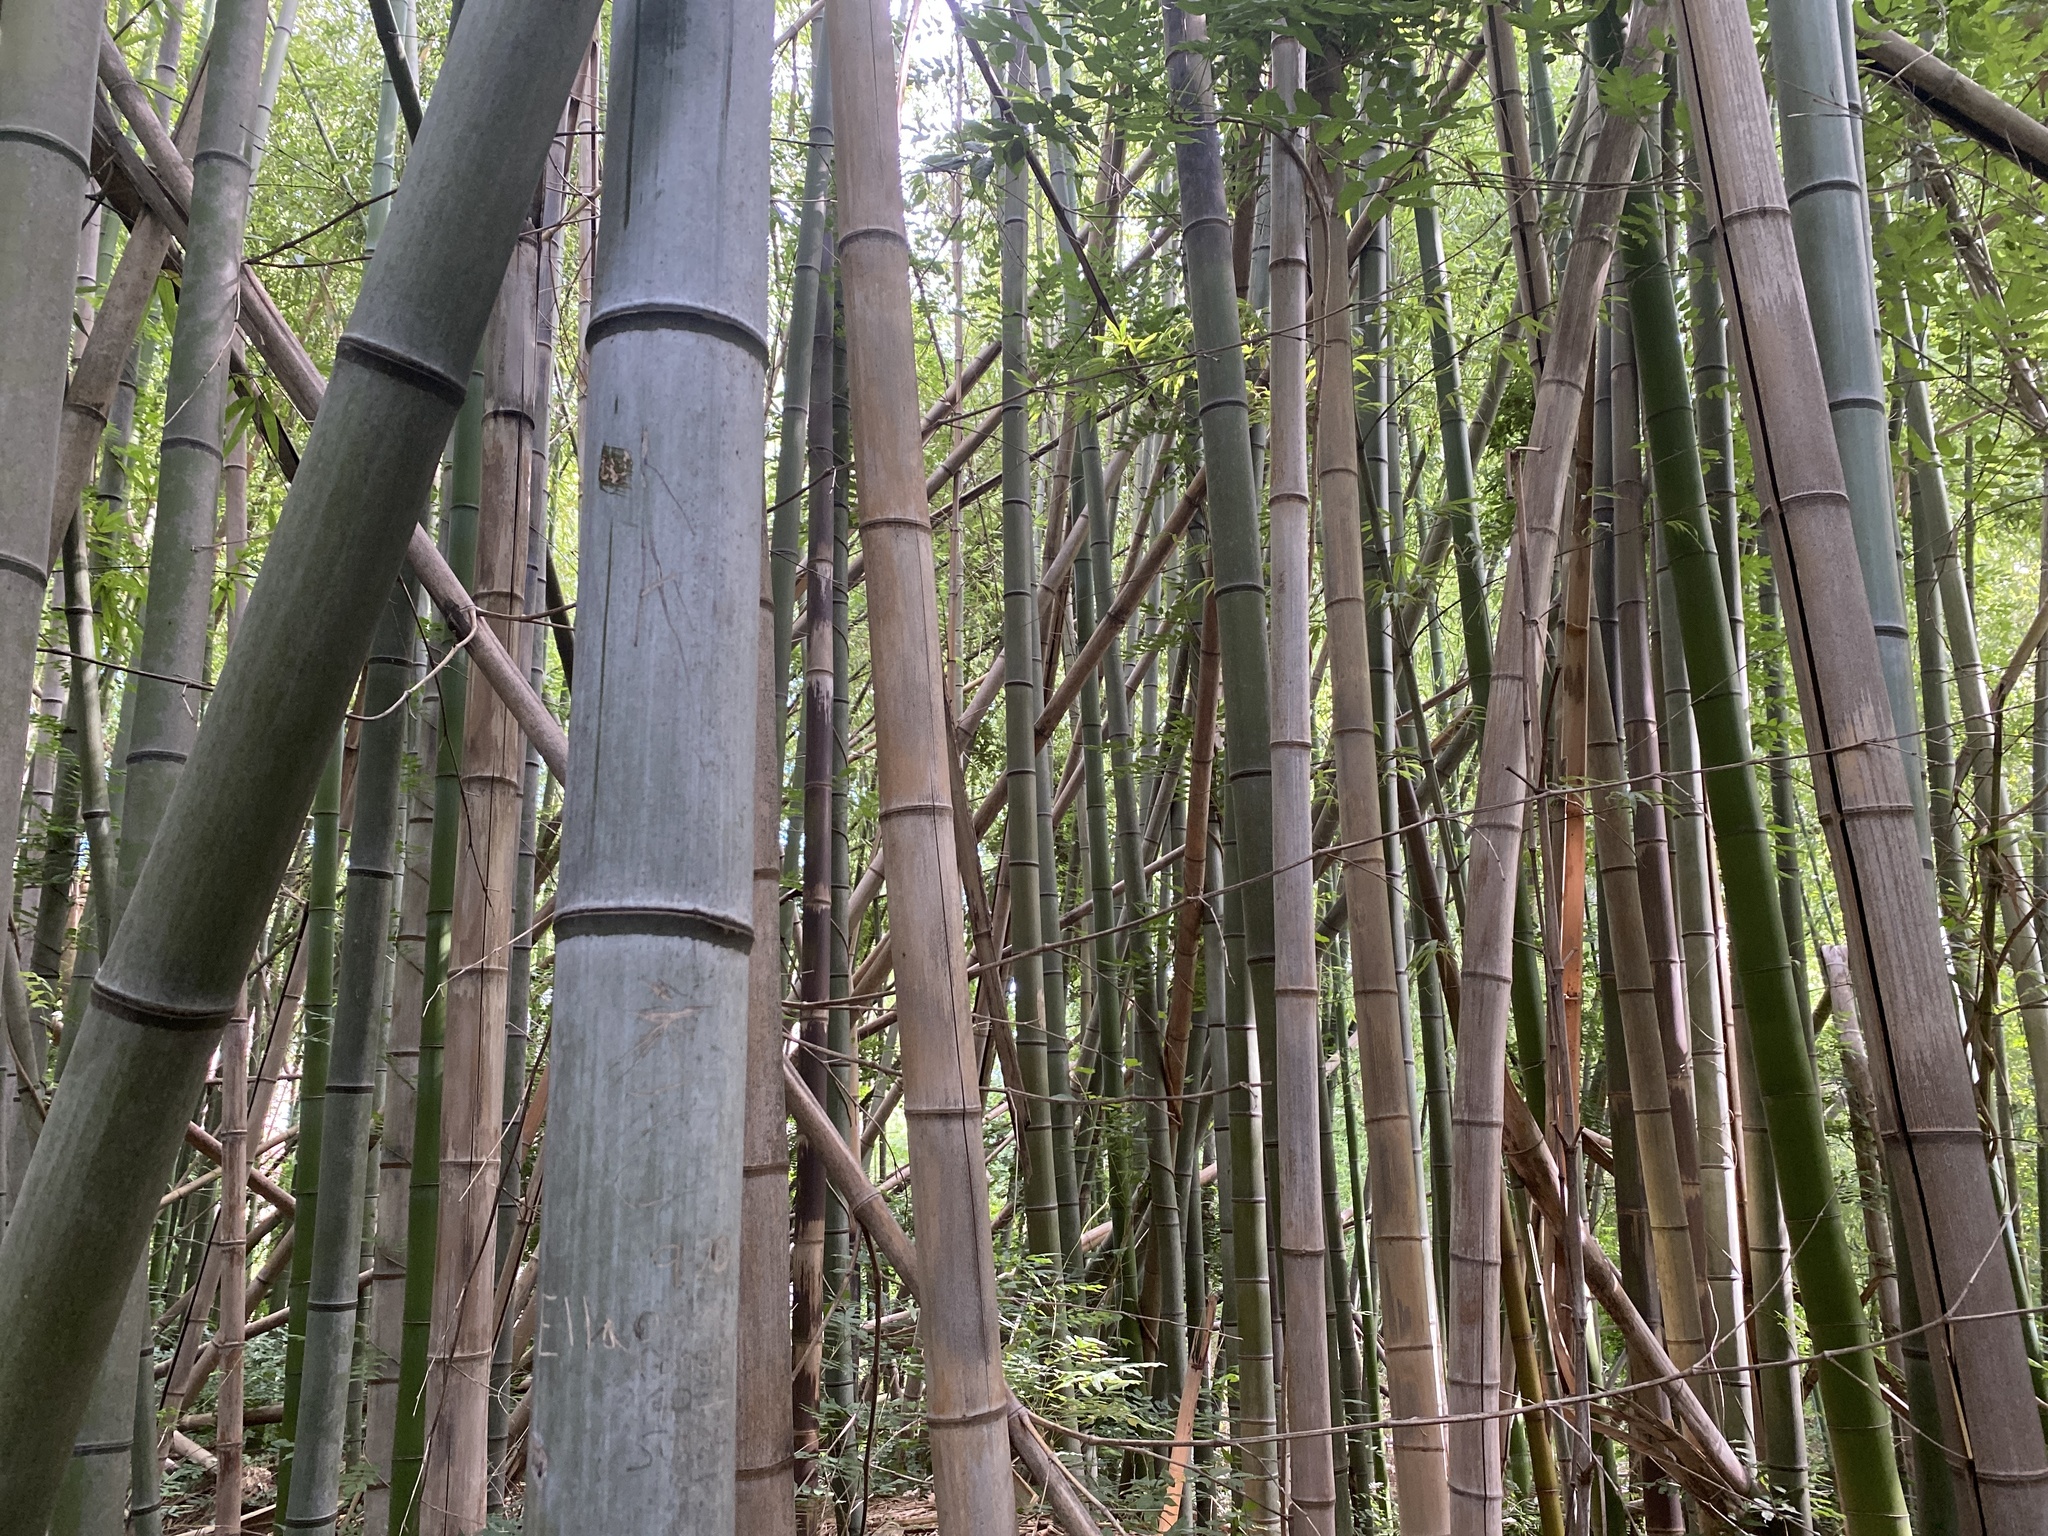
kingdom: Plantae
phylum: Tracheophyta
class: Liliopsida
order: Poales
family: Poaceae
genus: Phyllostachys
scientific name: Phyllostachys aurea
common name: Golden bamboo
